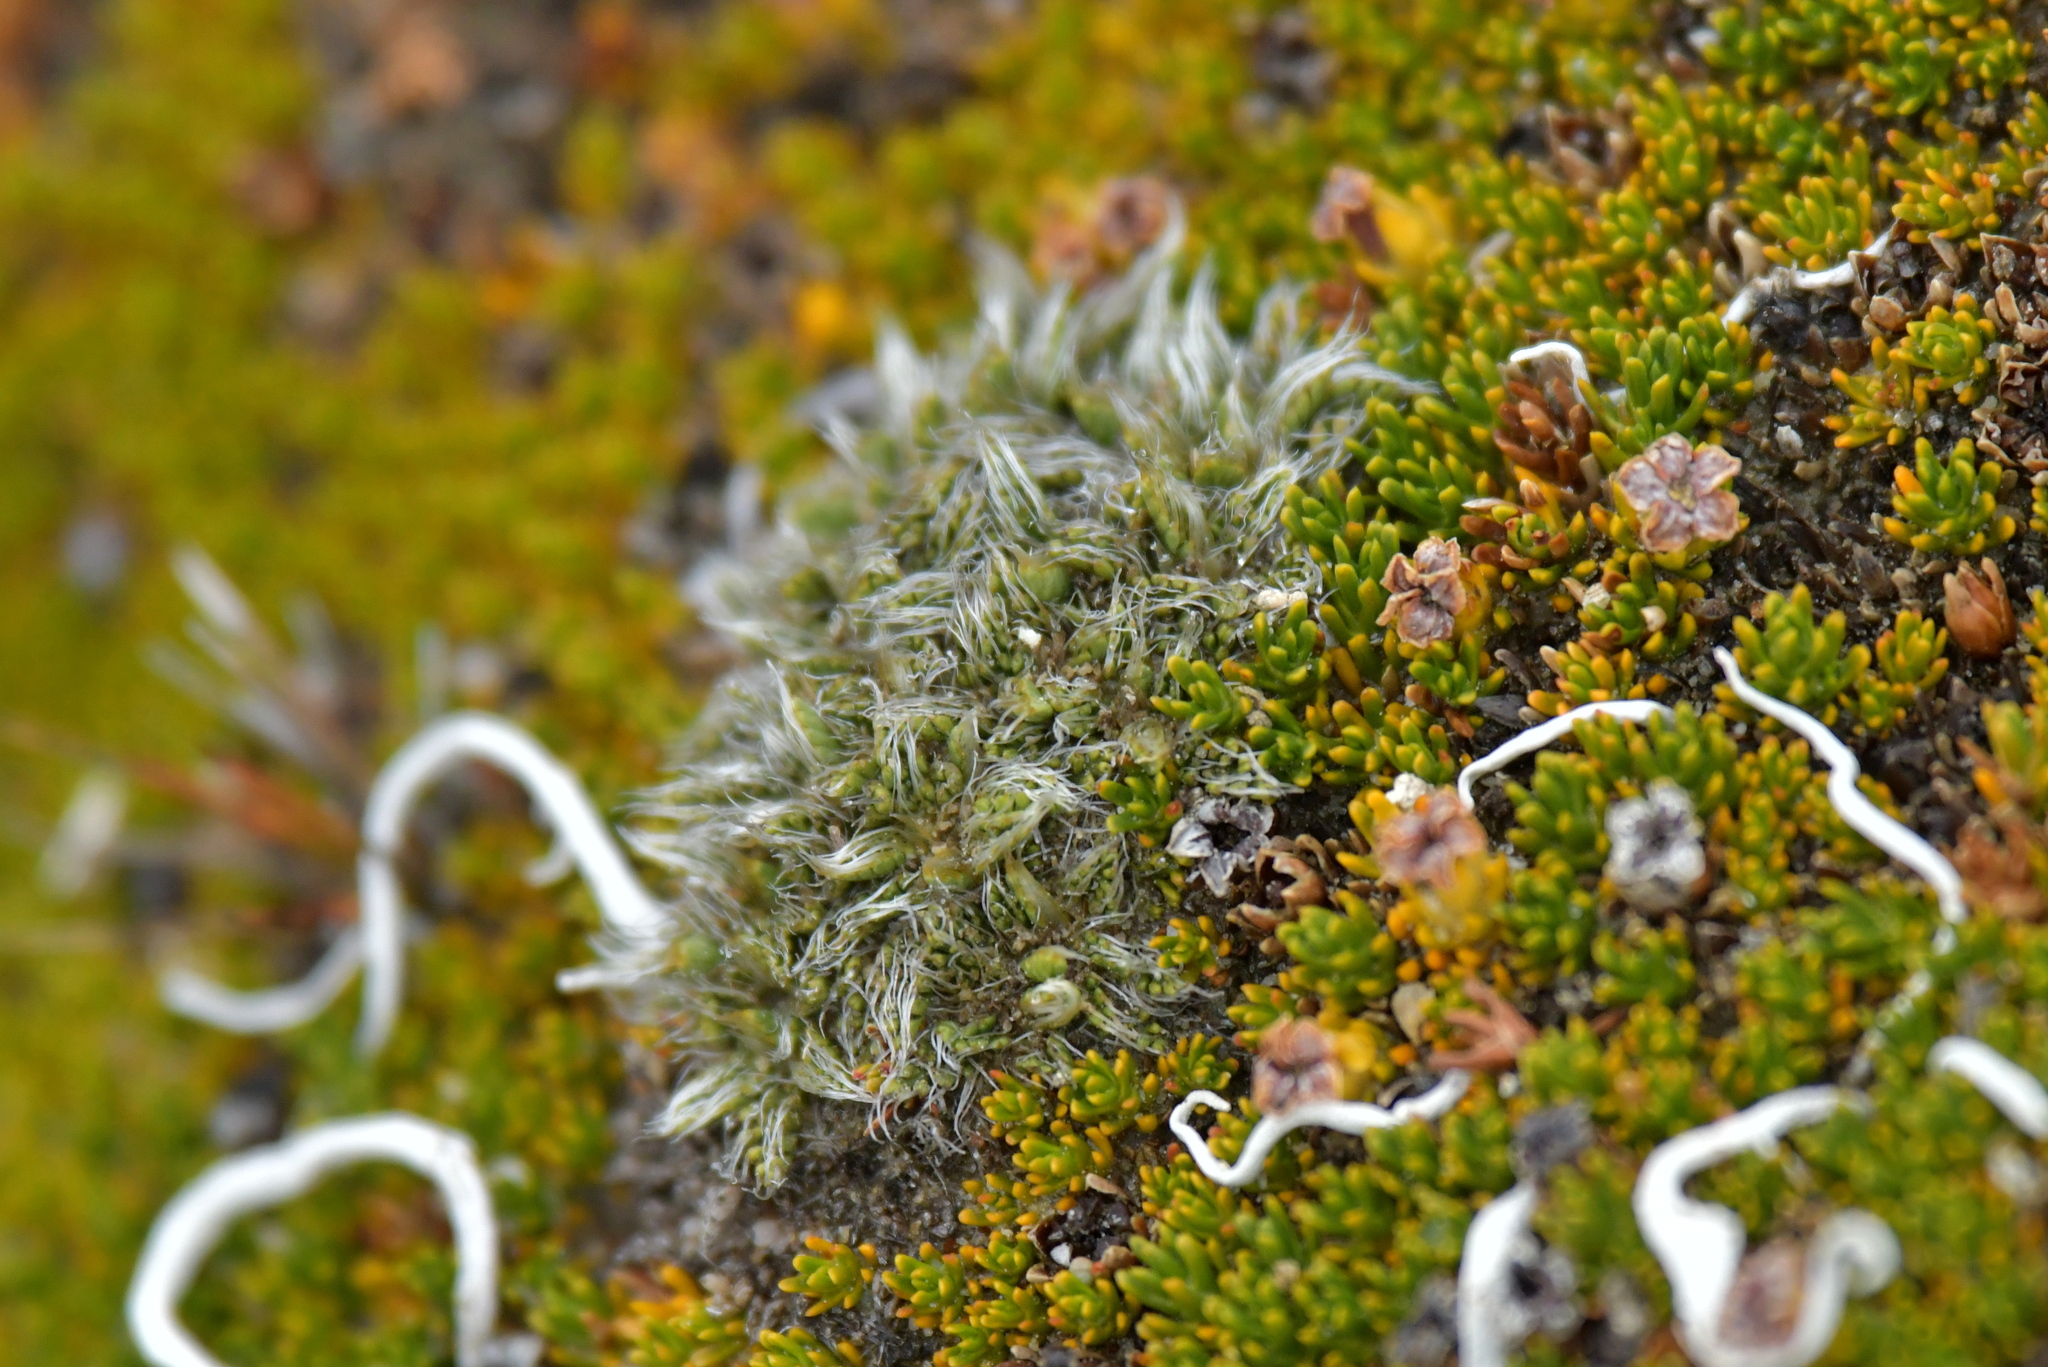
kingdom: Plantae
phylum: Tracheophyta
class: Magnoliopsida
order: Apiales
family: Apiaceae
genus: Anisotome
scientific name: Anisotome imbricata
